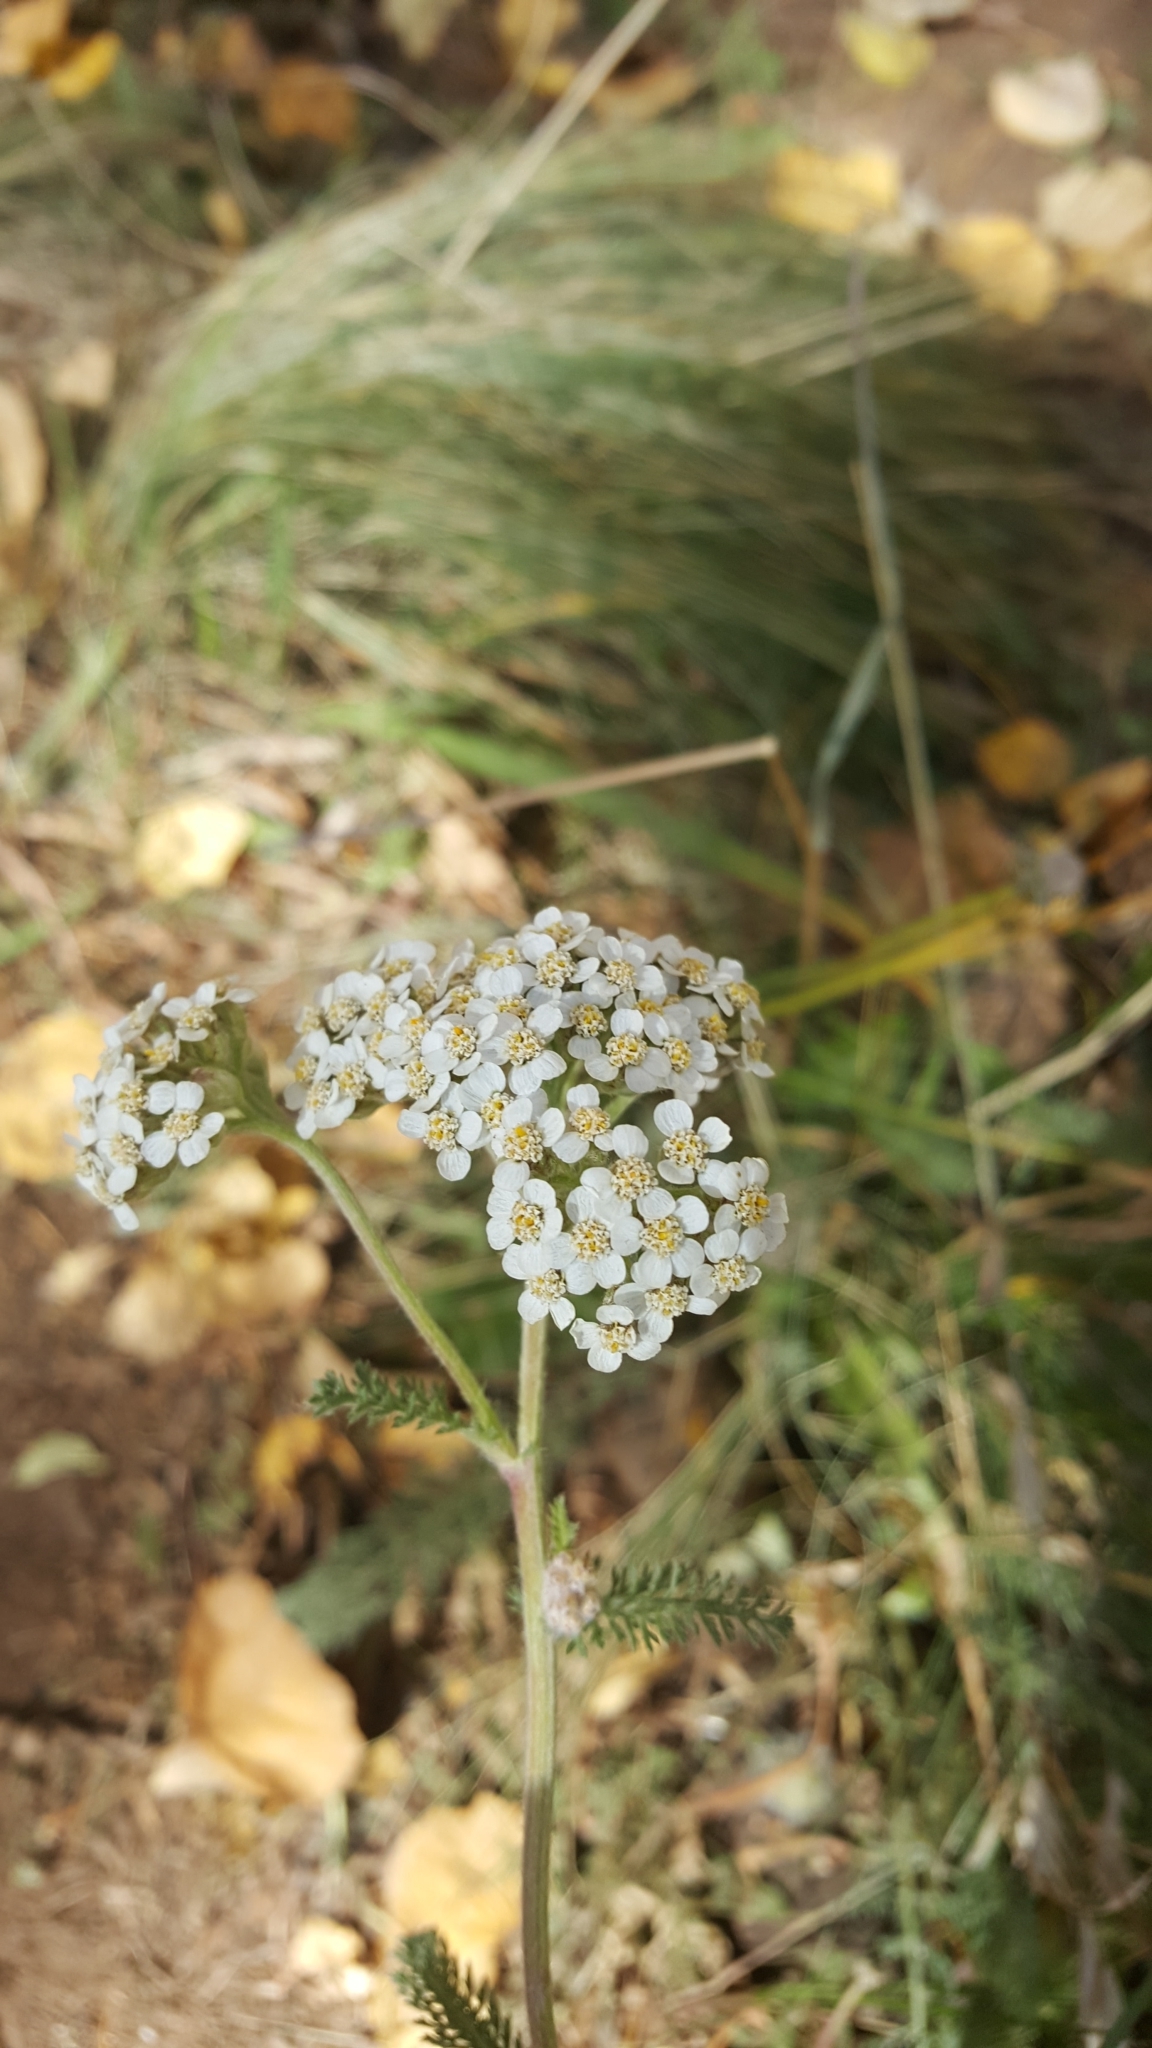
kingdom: Plantae
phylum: Tracheophyta
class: Magnoliopsida
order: Asterales
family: Asteraceae
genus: Achillea
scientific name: Achillea millefolium
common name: Yarrow
